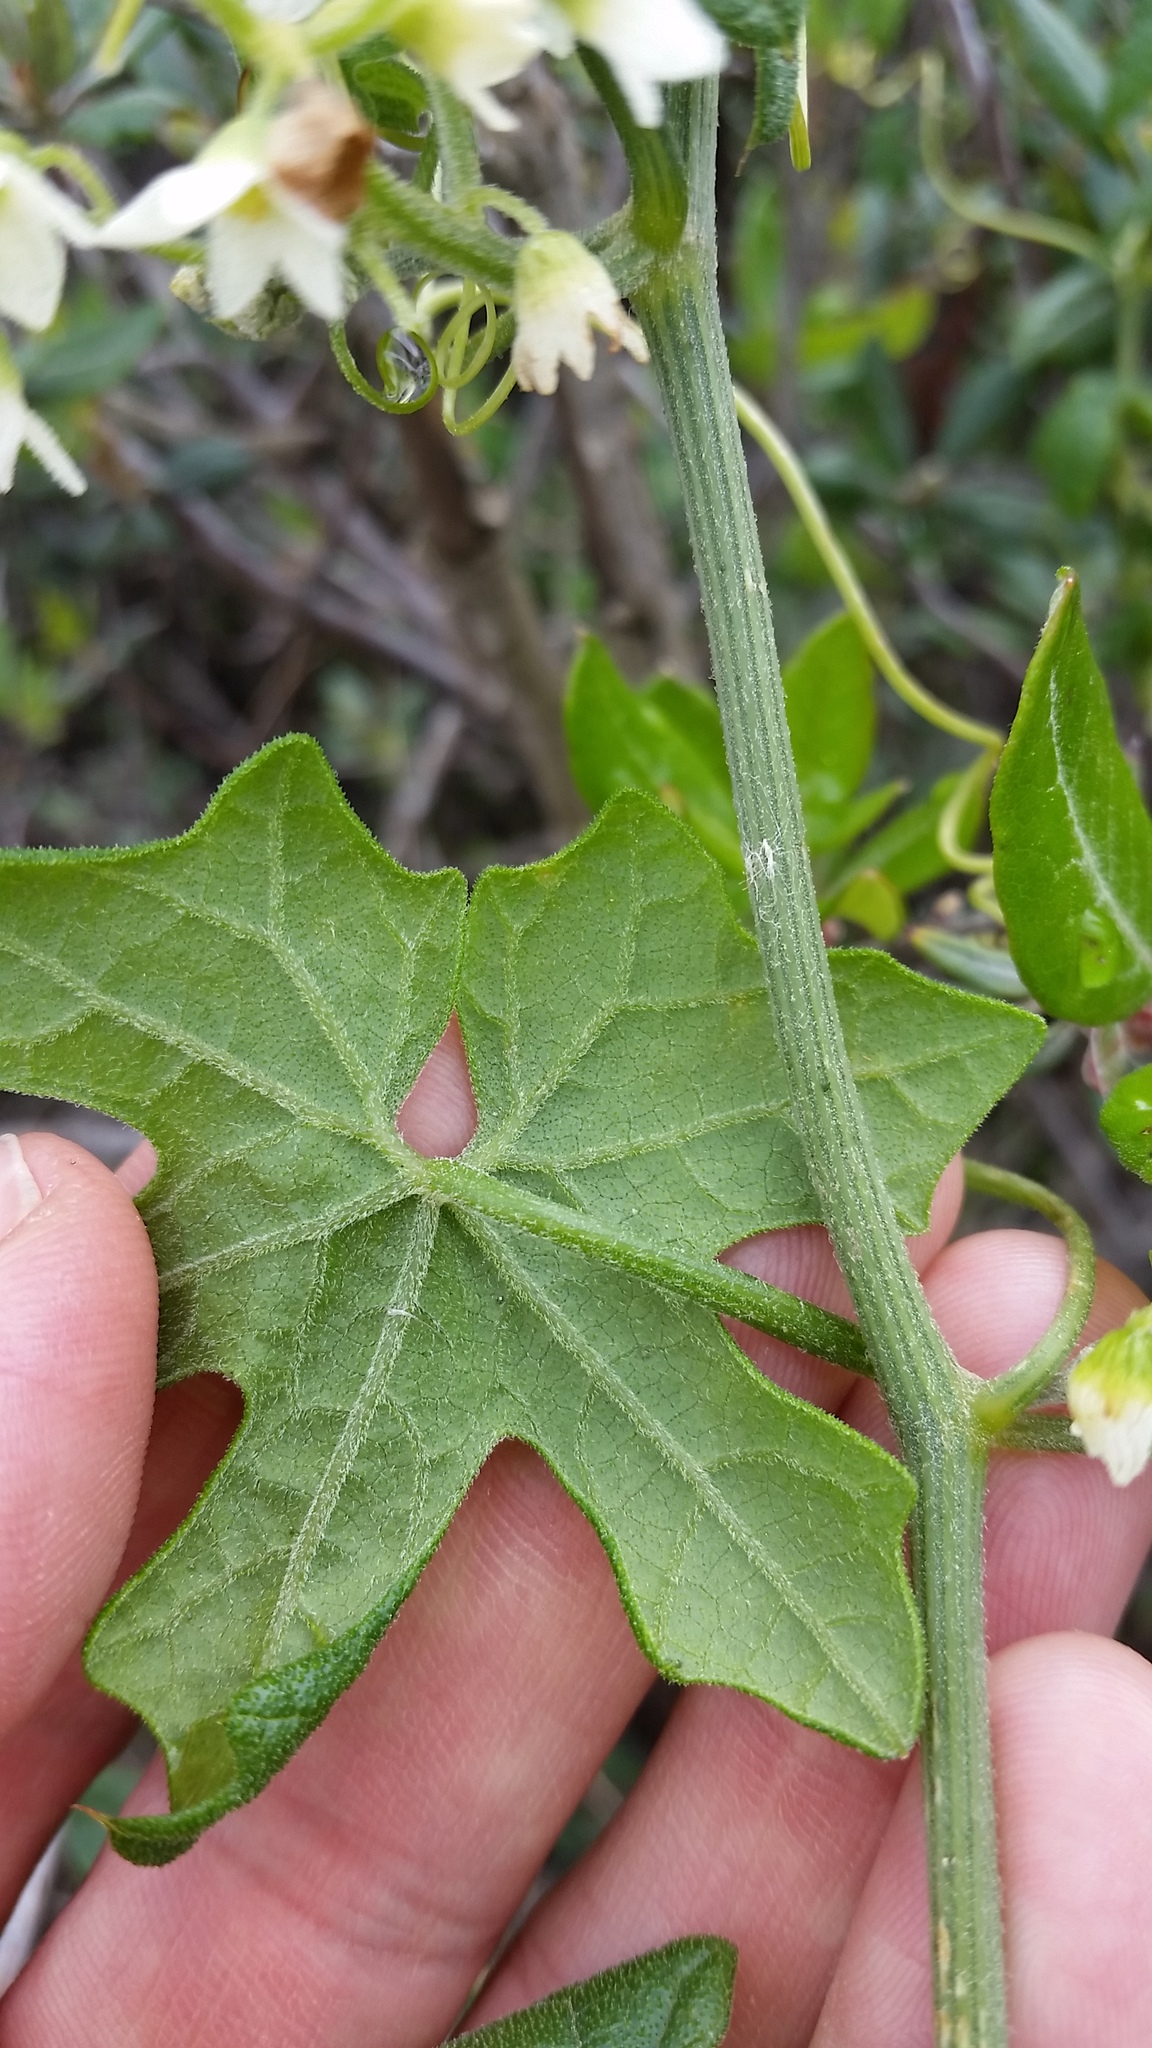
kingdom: Plantae
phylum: Tracheophyta
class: Magnoliopsida
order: Cucurbitales
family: Cucurbitaceae
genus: Marah
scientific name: Marah macrocarpa
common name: Cucamonga manroot
